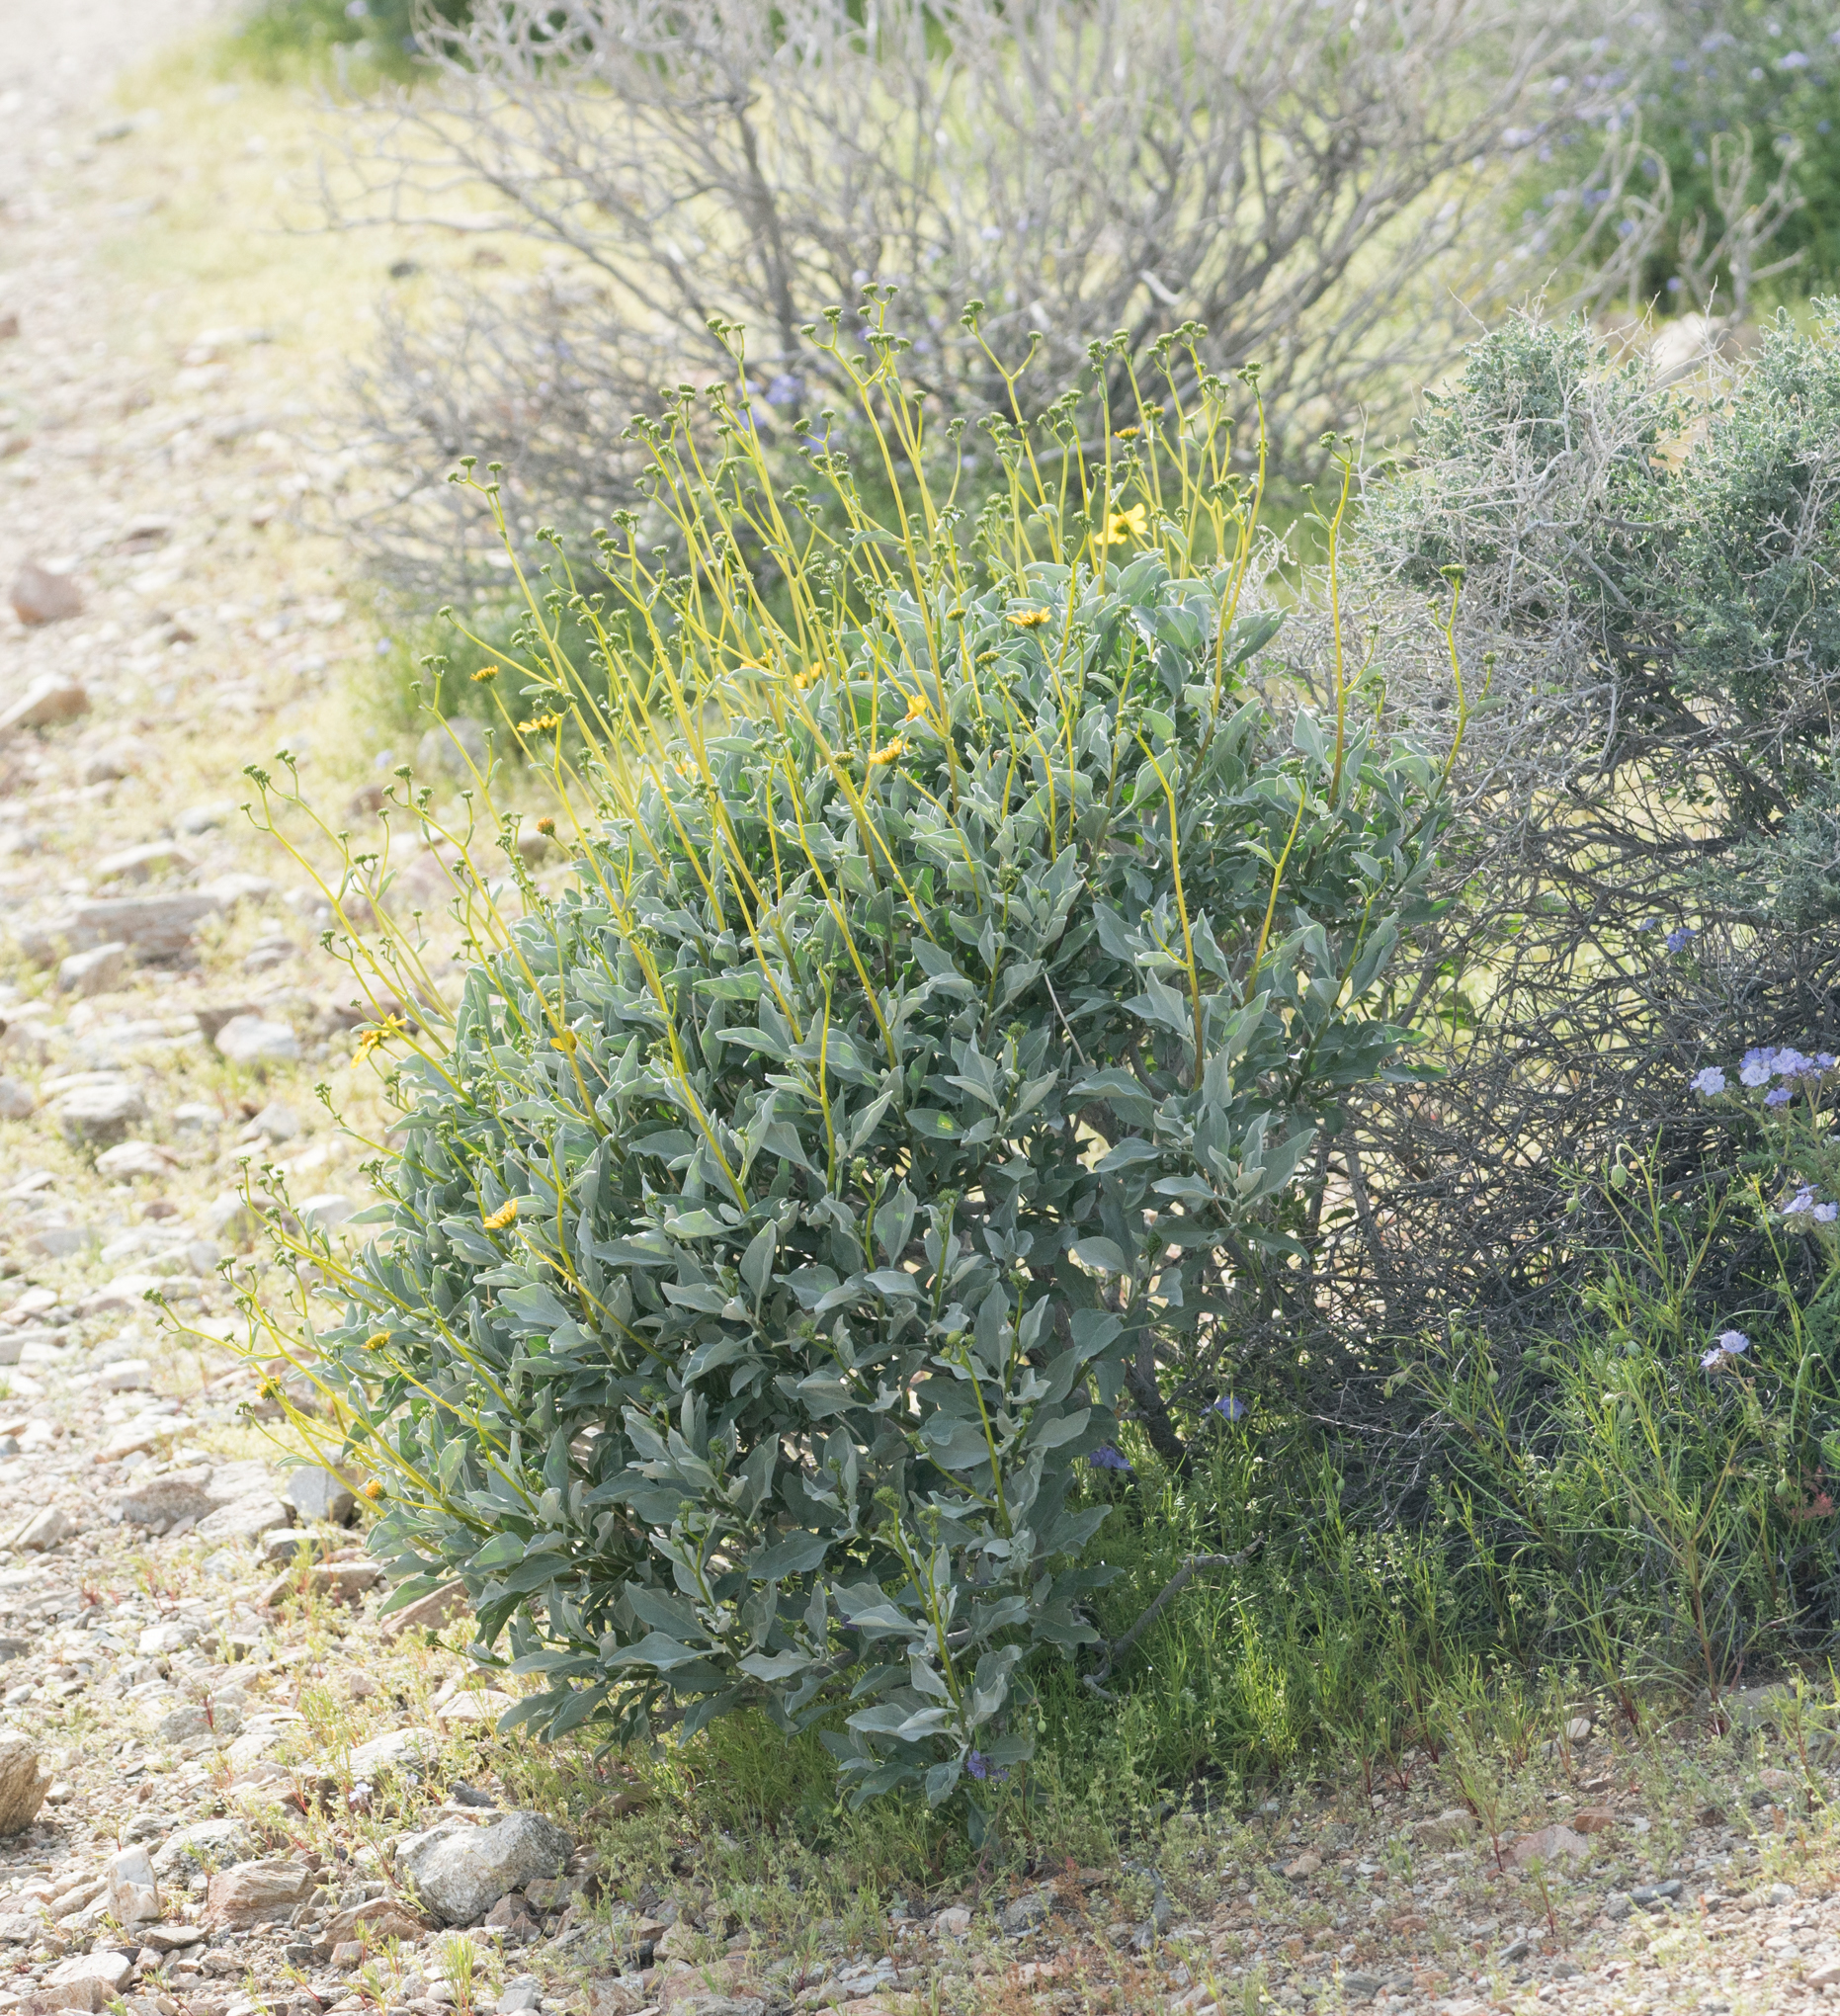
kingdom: Plantae
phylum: Tracheophyta
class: Magnoliopsida
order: Asterales
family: Asteraceae
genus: Encelia
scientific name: Encelia farinosa
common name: Brittlebush
